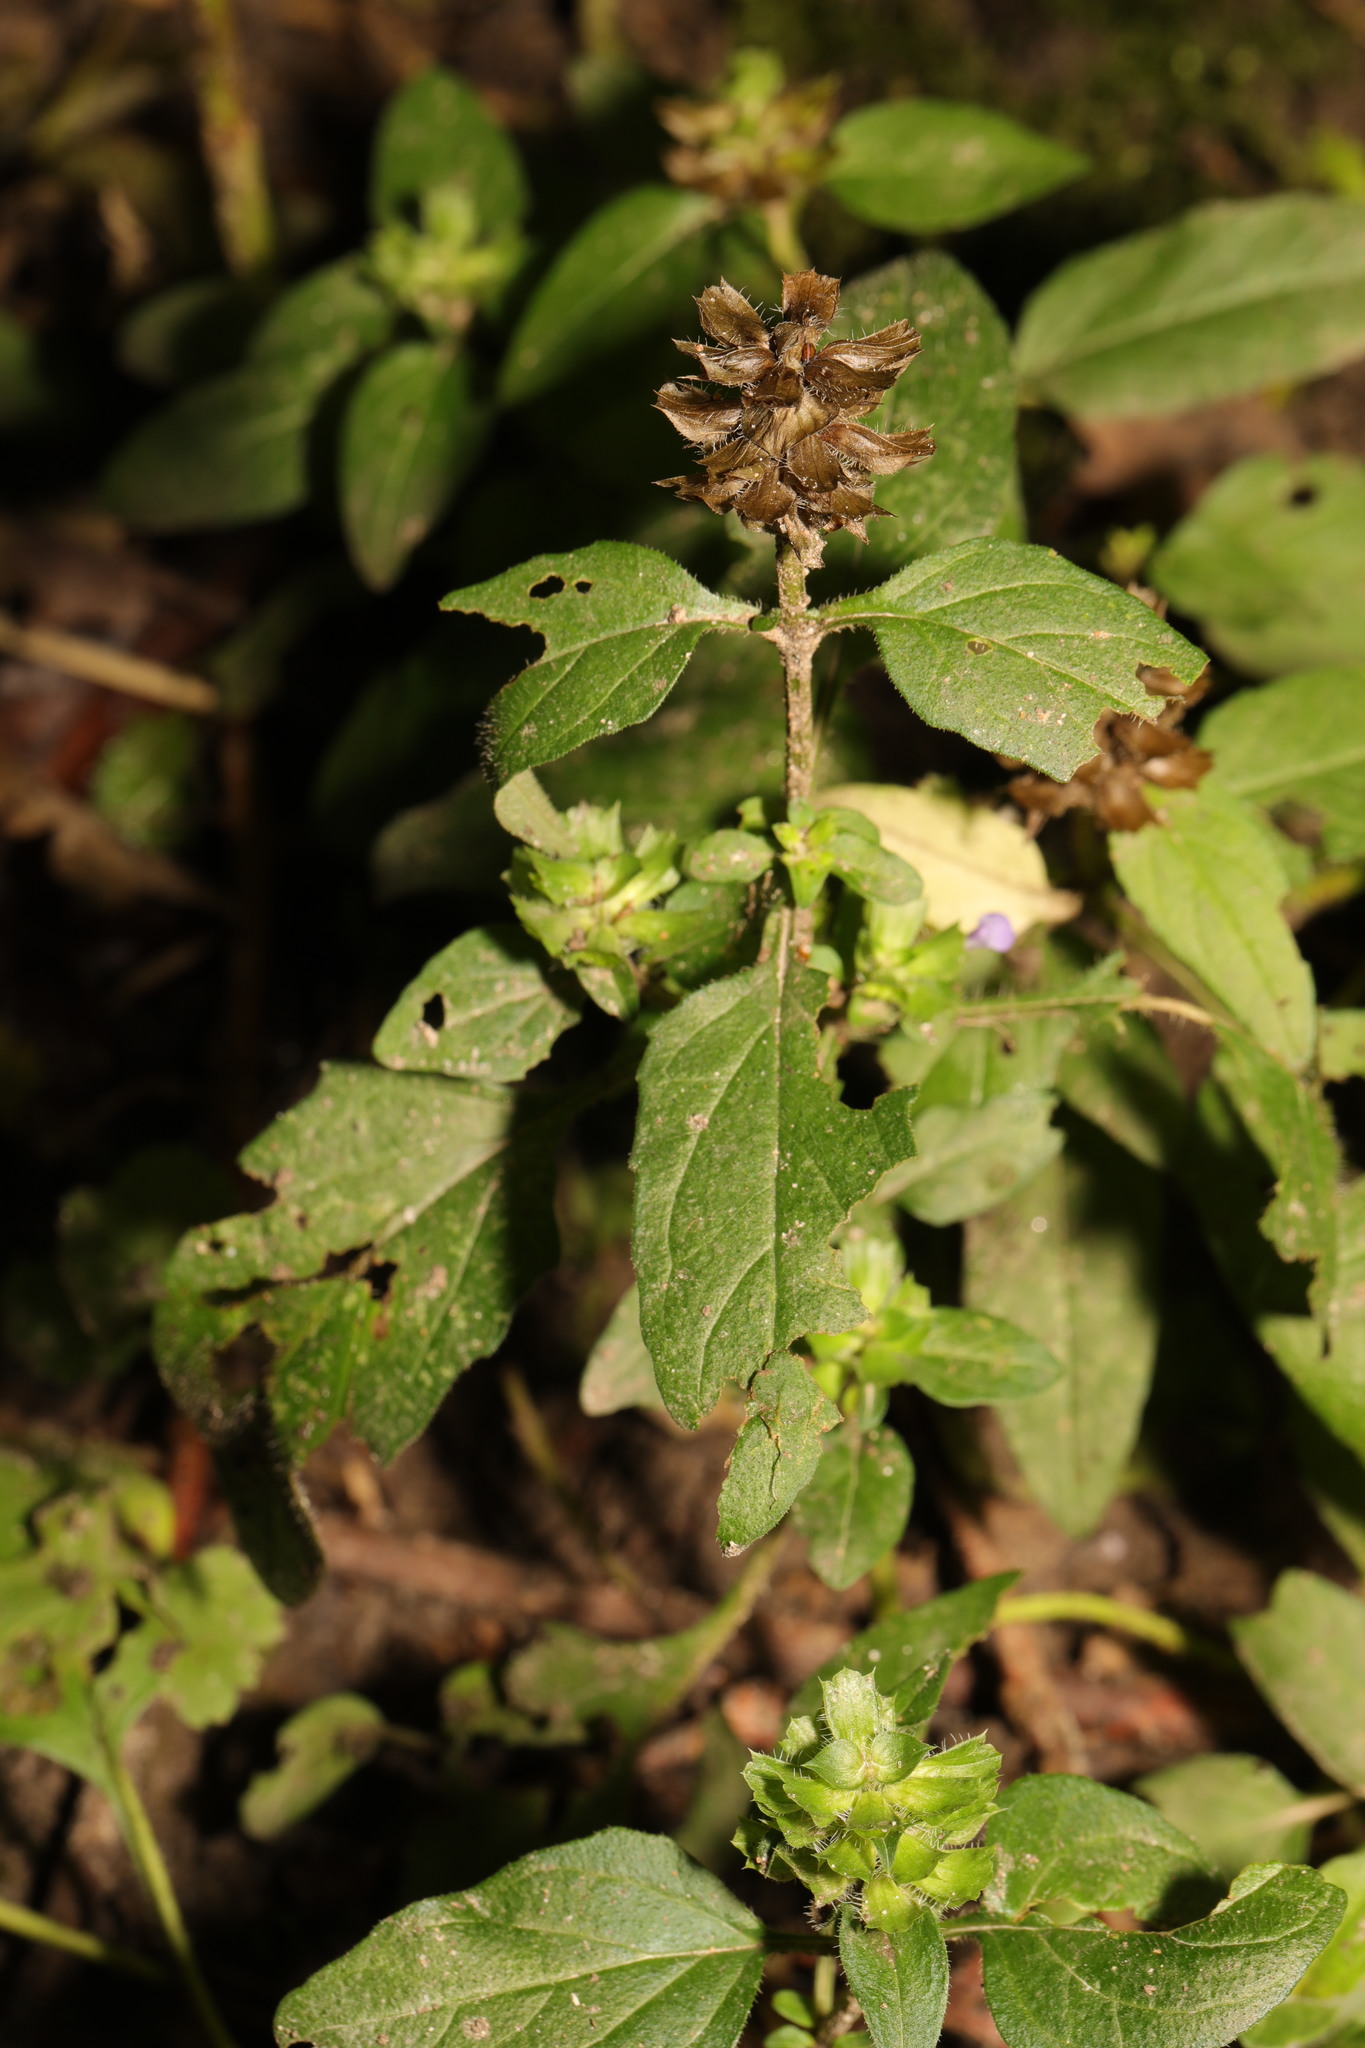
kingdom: Plantae
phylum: Tracheophyta
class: Magnoliopsida
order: Lamiales
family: Lamiaceae
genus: Prunella
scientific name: Prunella vulgaris
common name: Heal-all
